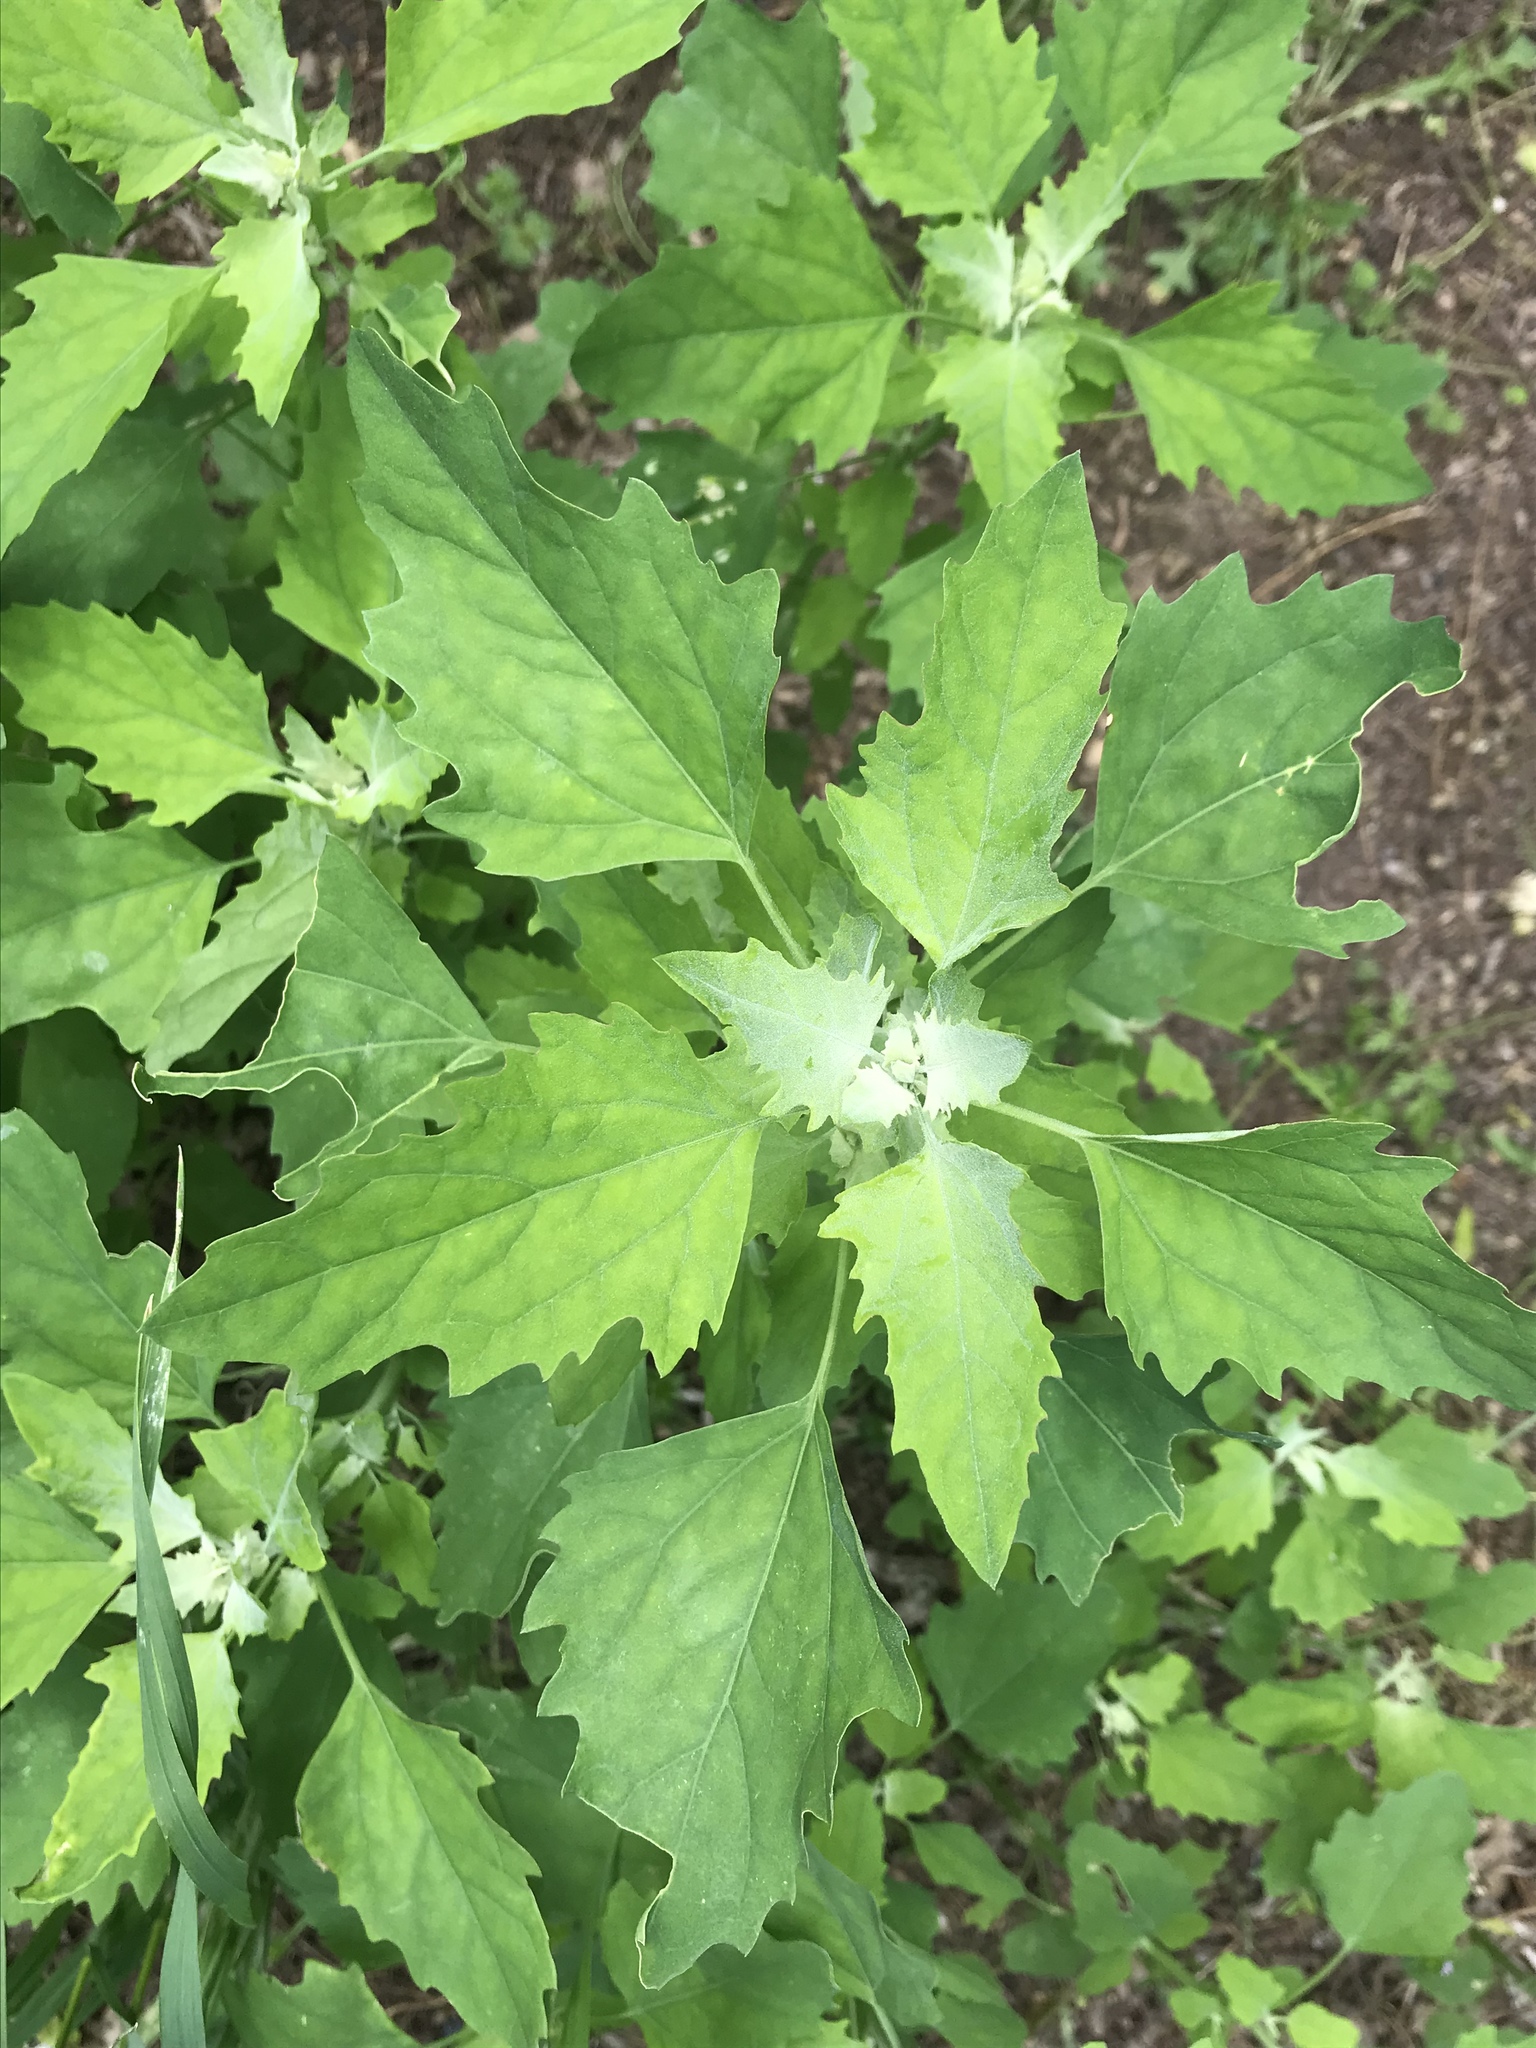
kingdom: Plantae
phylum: Tracheophyta
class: Magnoliopsida
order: Caryophyllales
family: Amaranthaceae
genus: Chenopodium
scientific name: Chenopodium album
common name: Fat-hen
